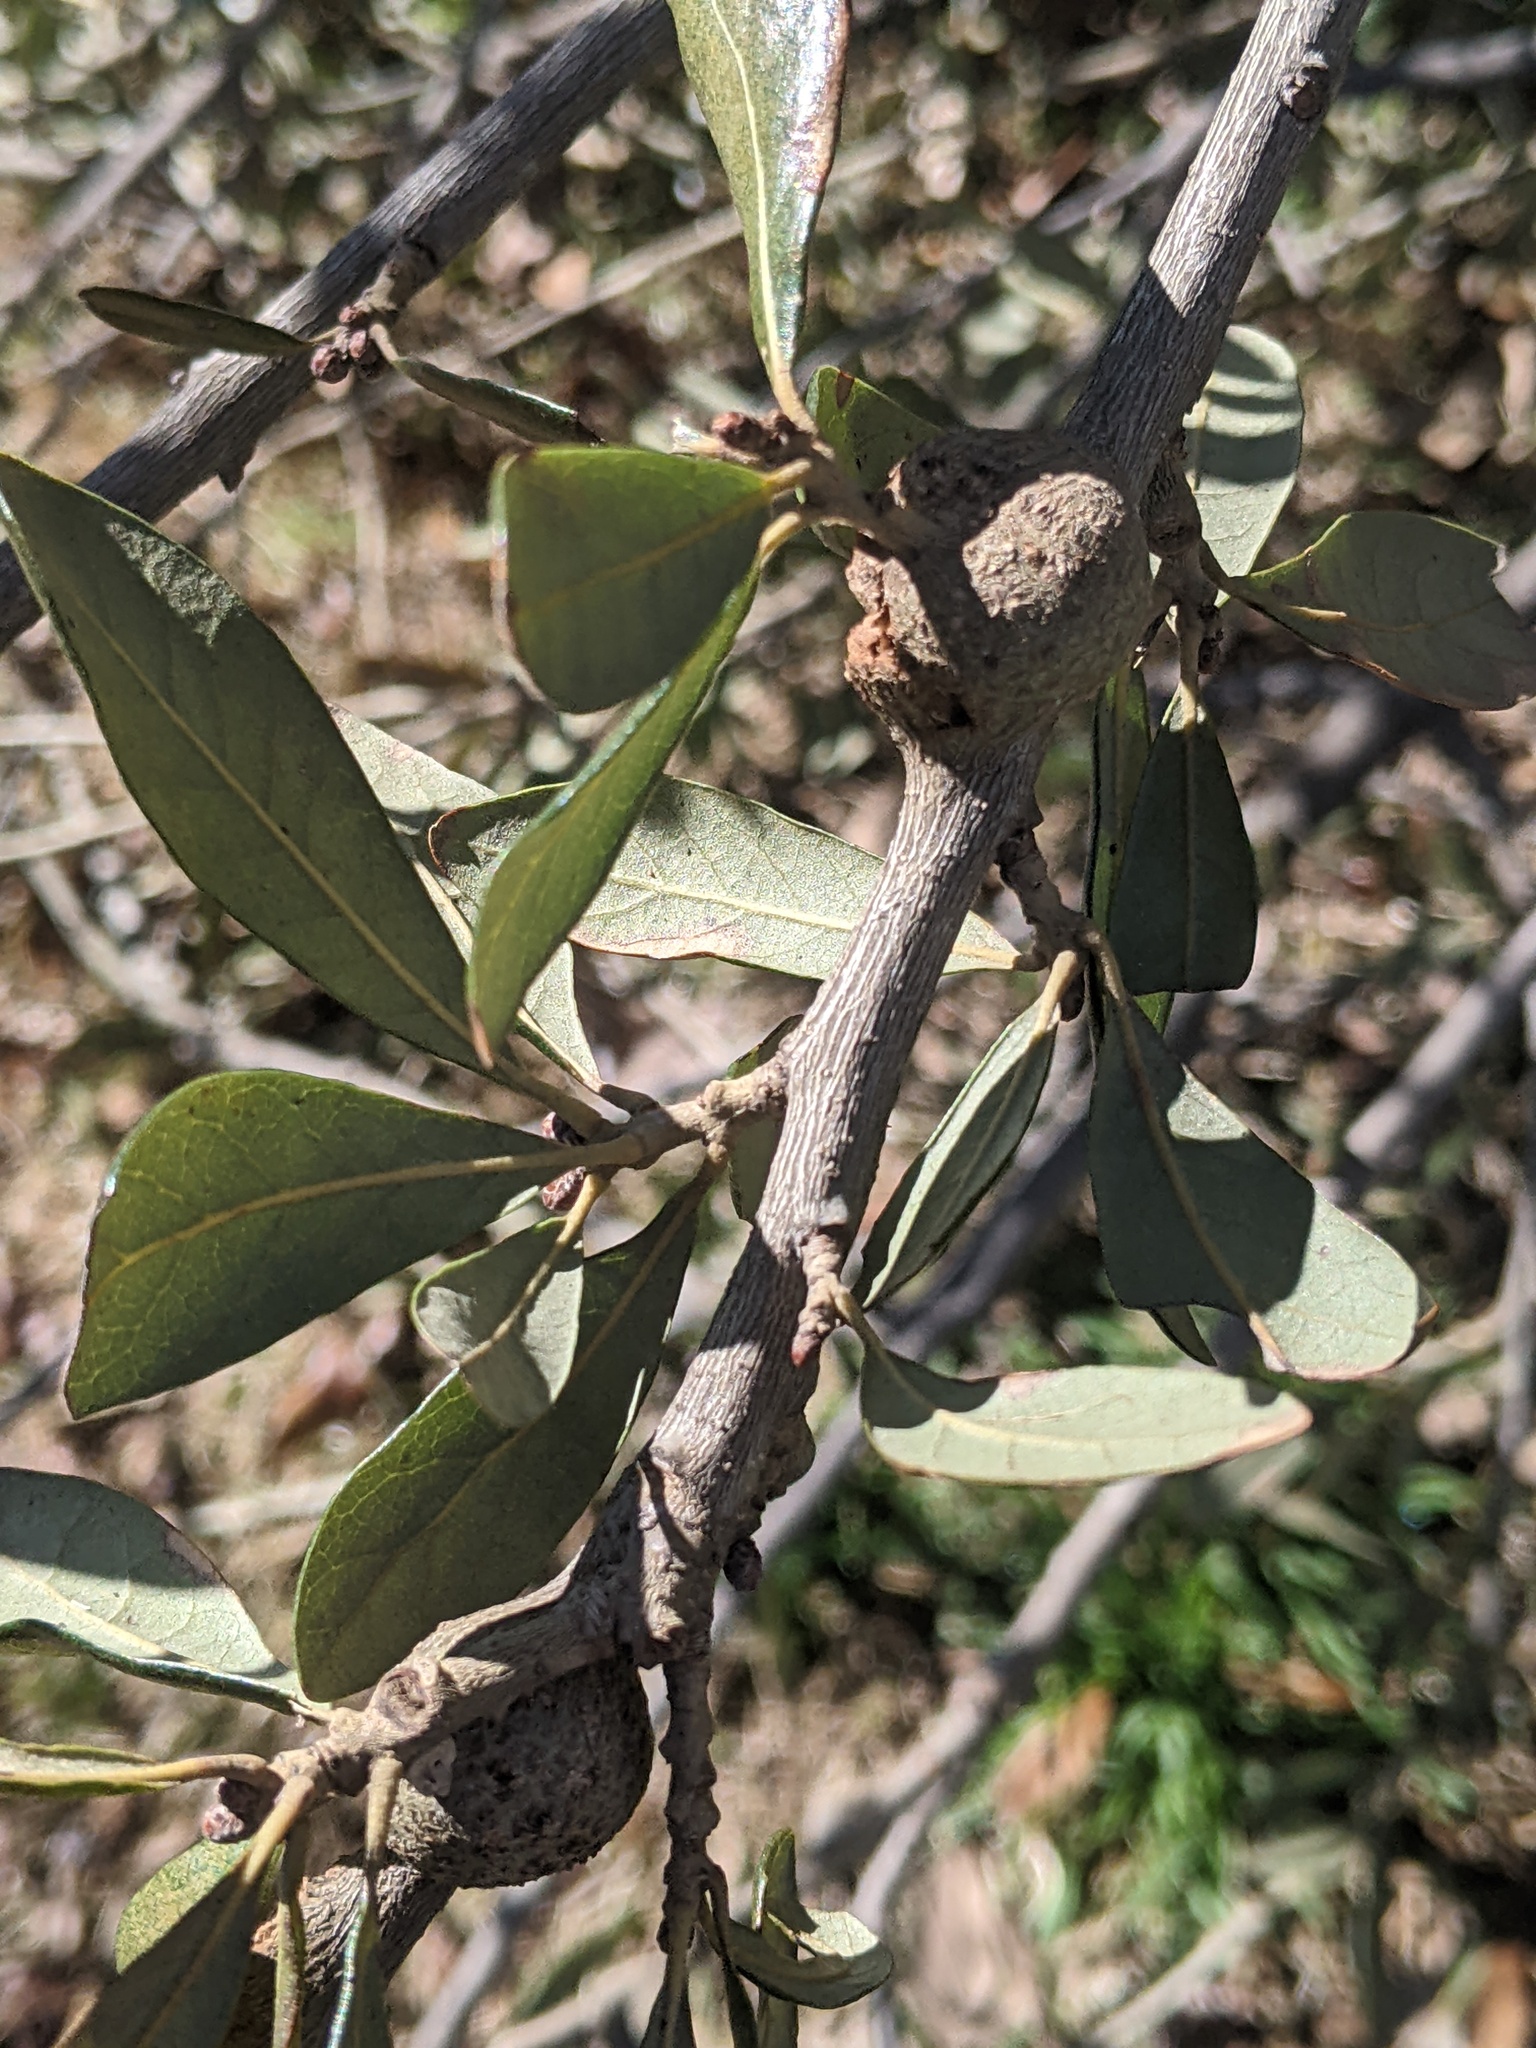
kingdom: Animalia
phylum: Arthropoda
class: Insecta
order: Hymenoptera
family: Cynipidae
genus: Callirhytis
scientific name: Callirhytis
